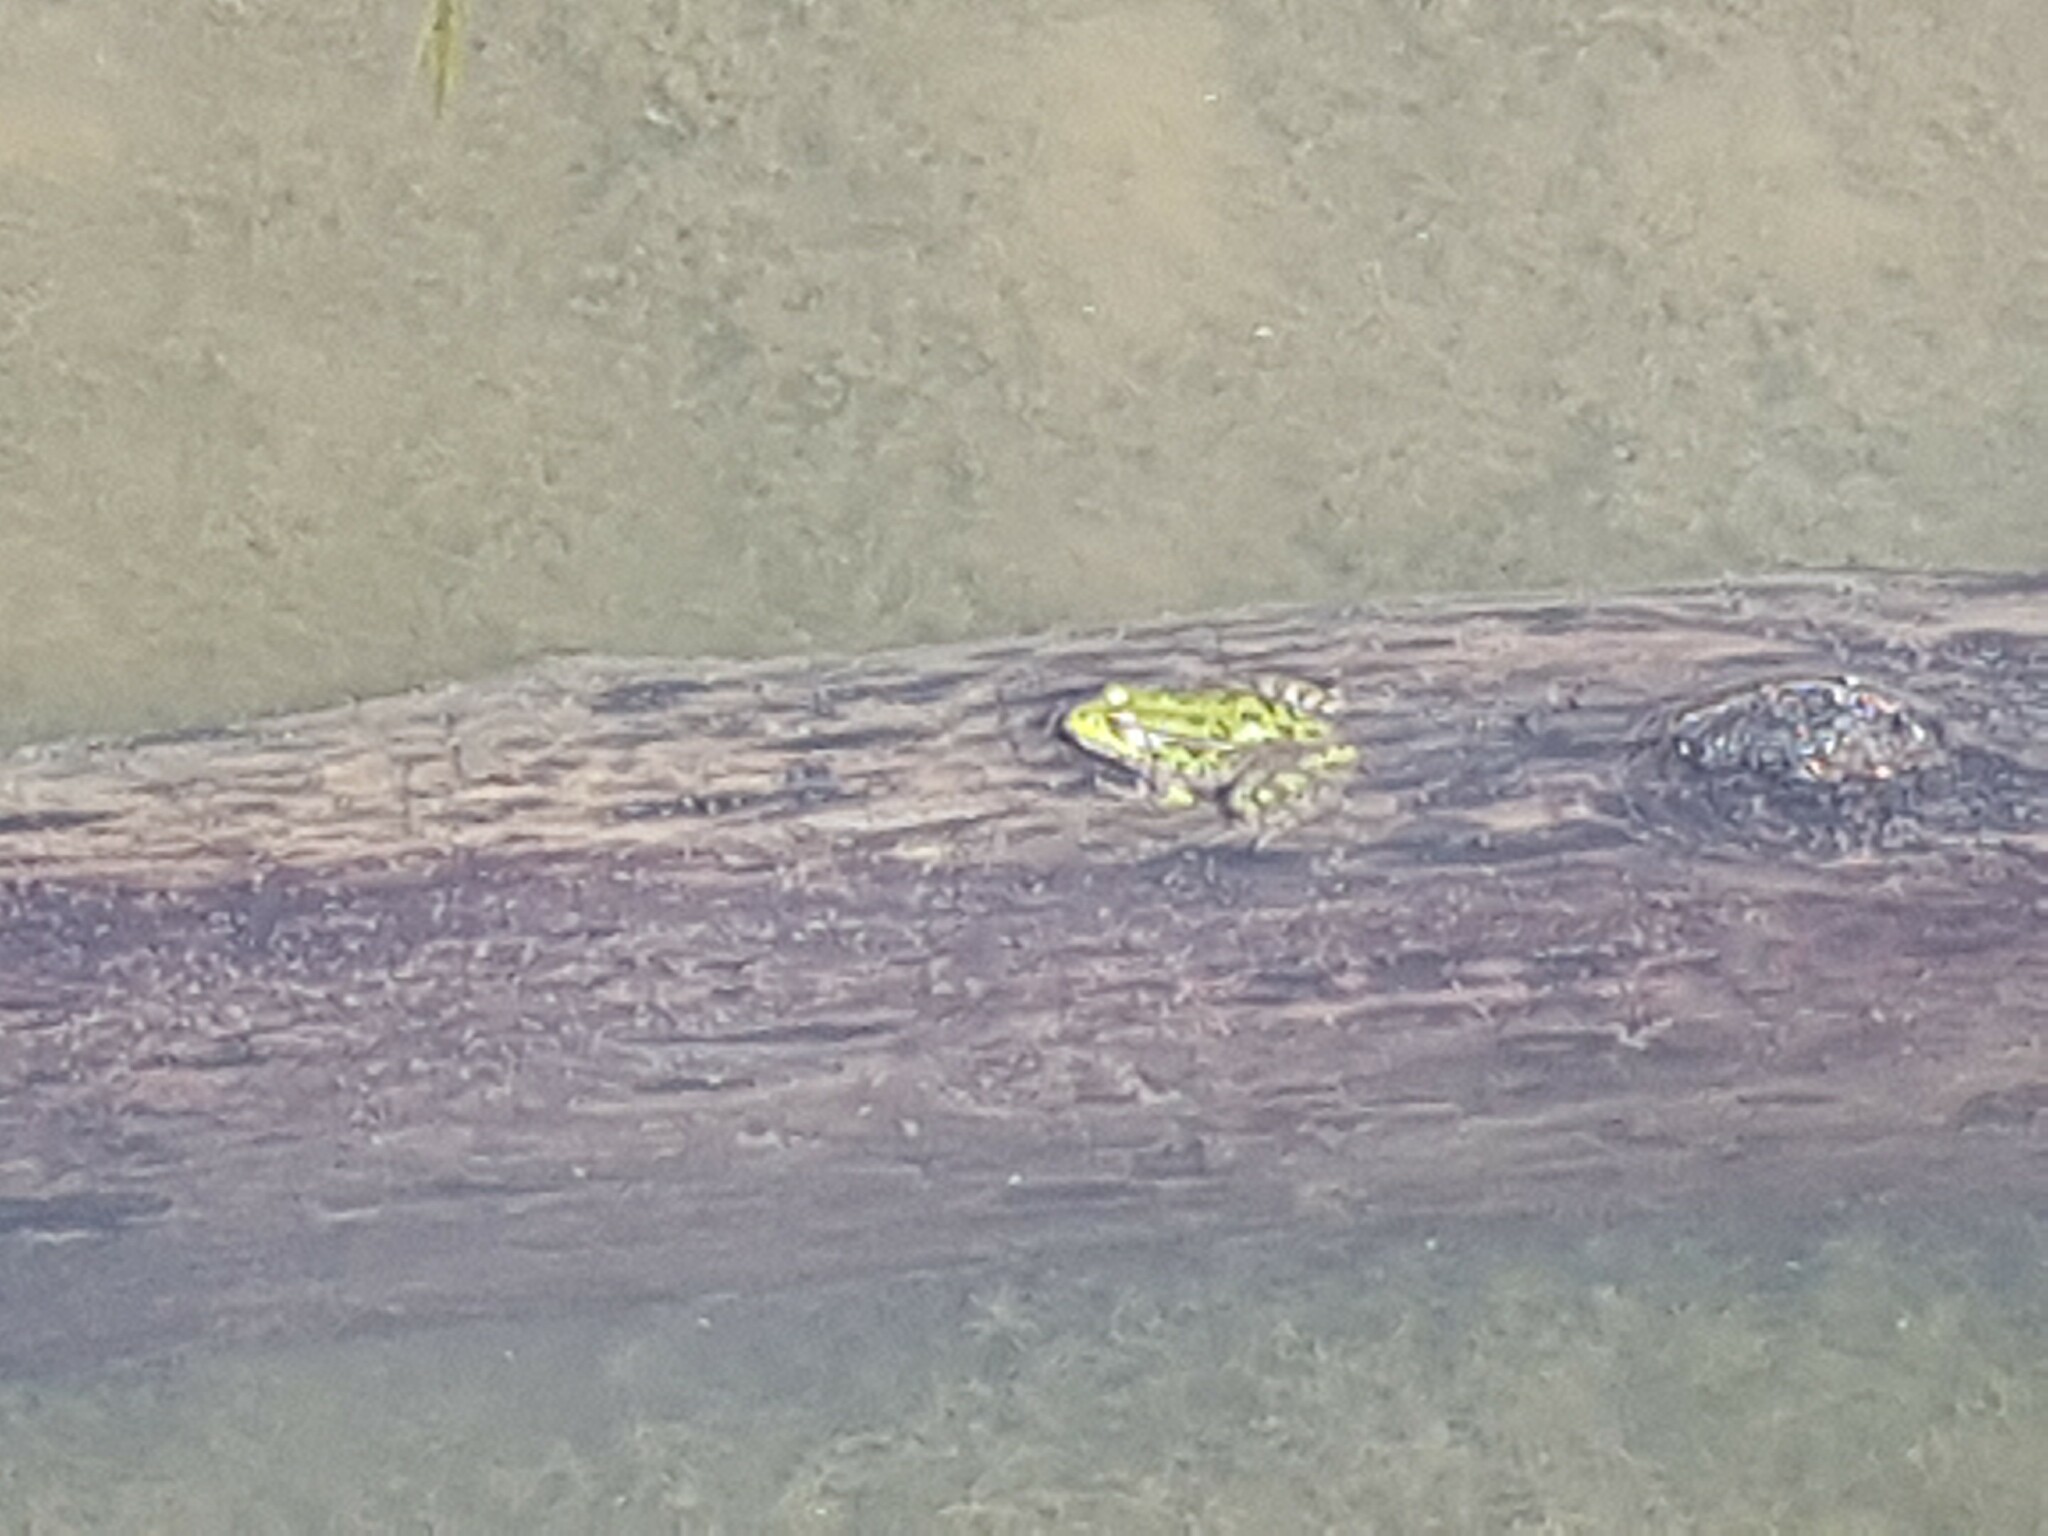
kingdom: Animalia
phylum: Chordata
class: Amphibia
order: Anura
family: Ranidae
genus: Pelophylax
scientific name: Pelophylax
